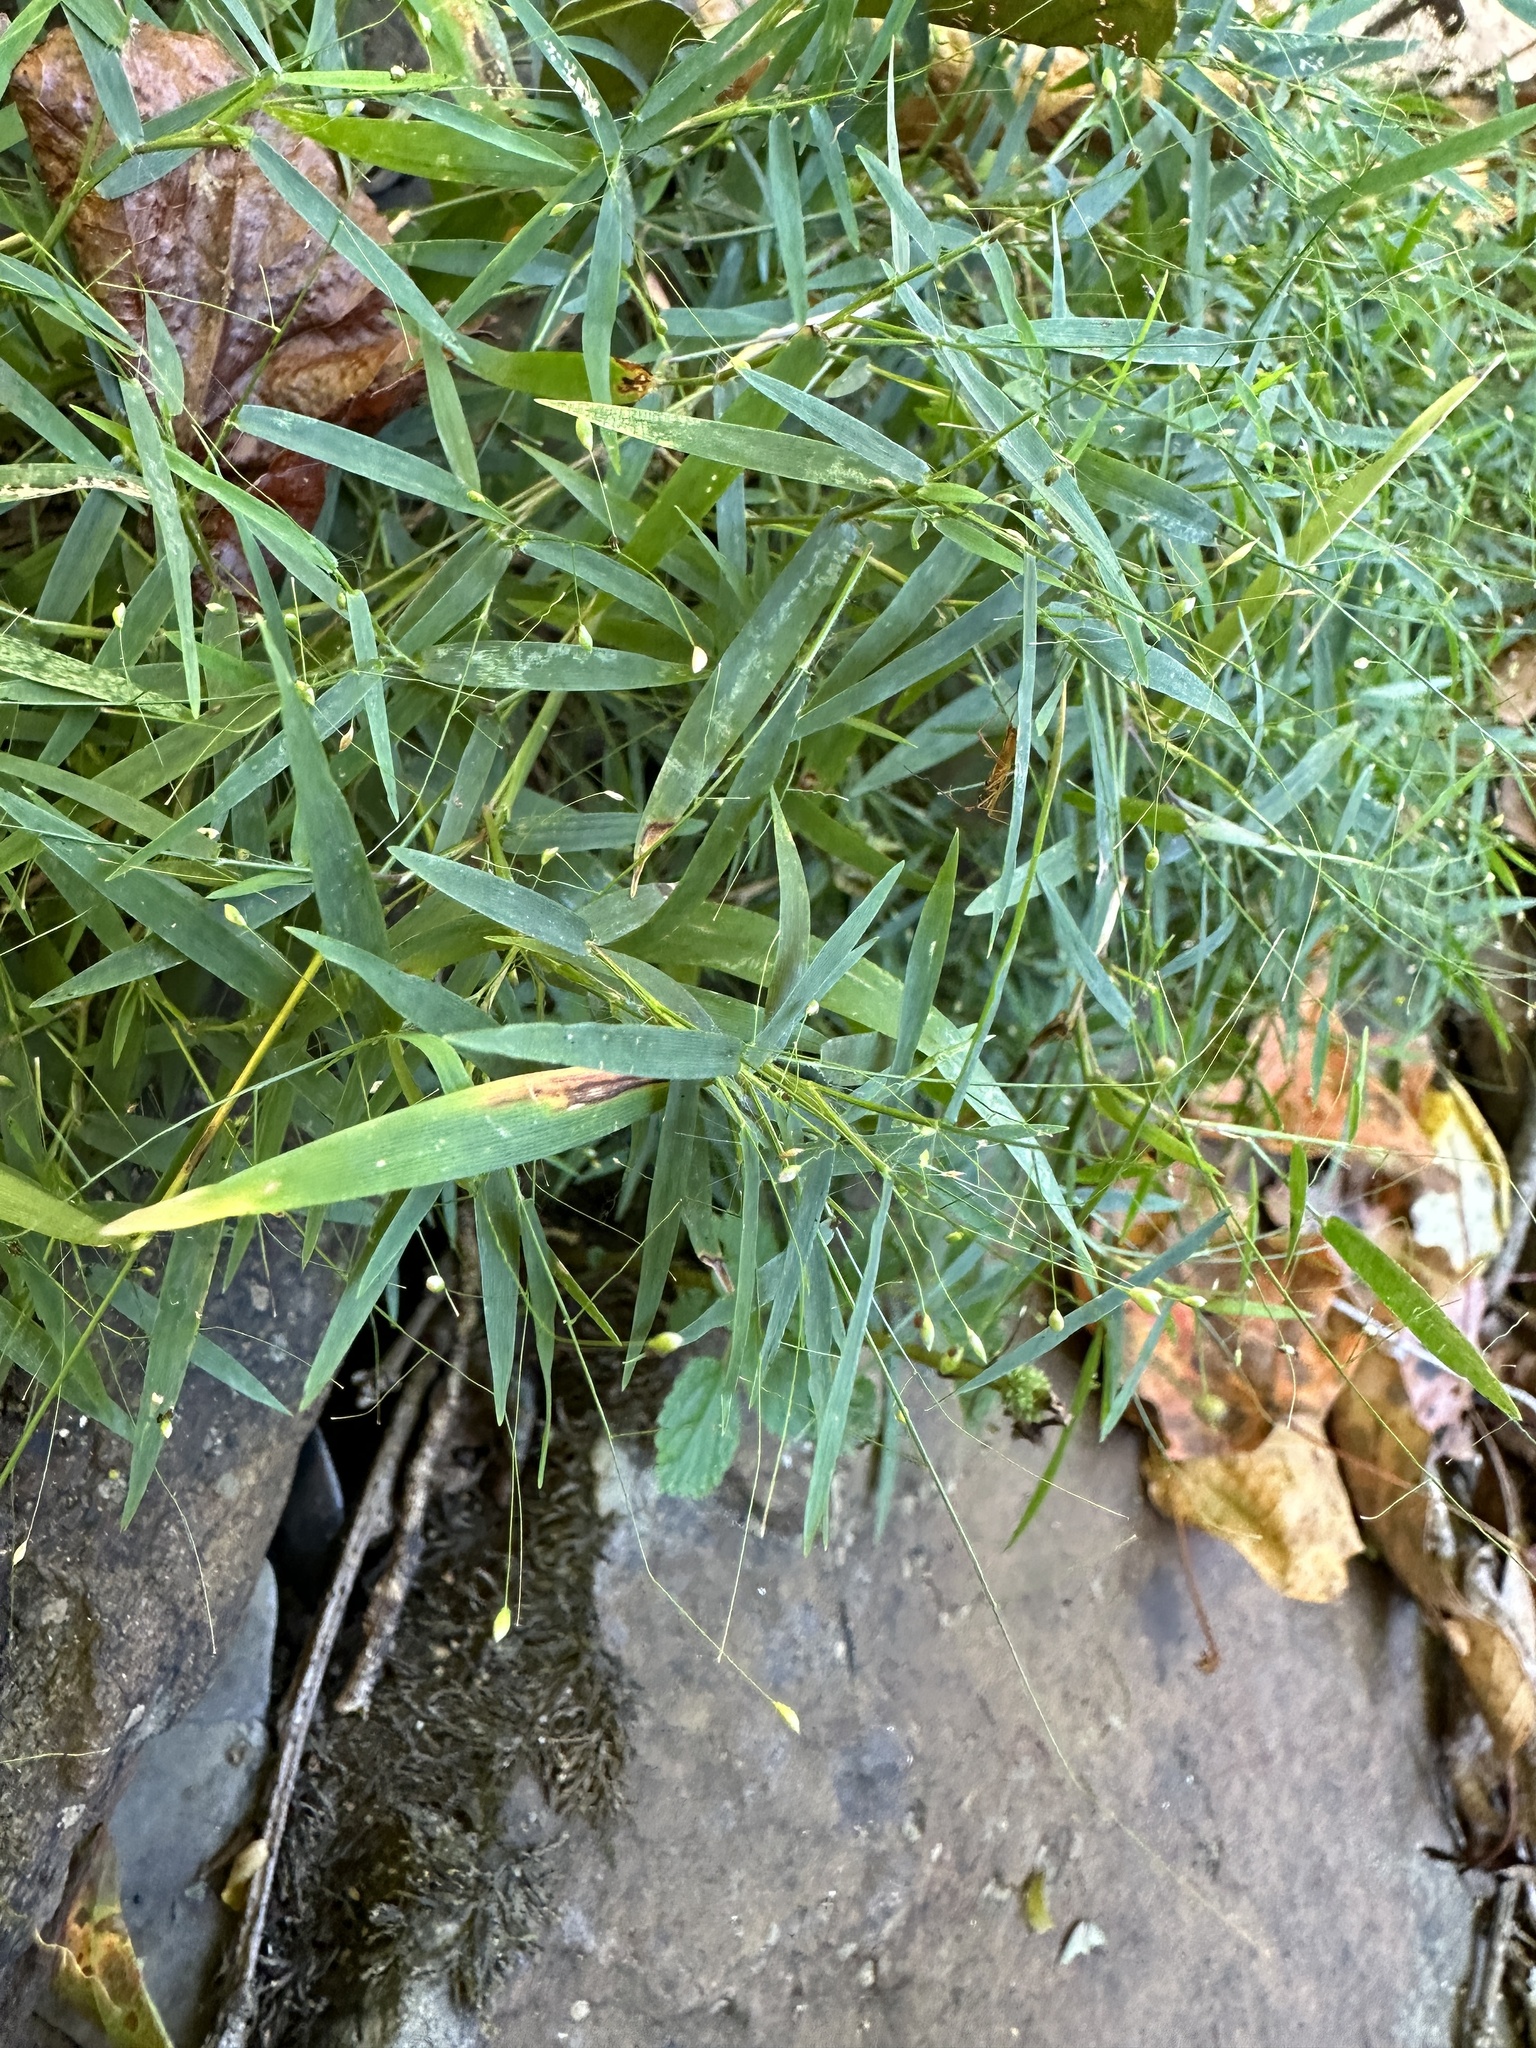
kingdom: Plantae
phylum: Tracheophyta
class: Liliopsida
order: Poales
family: Poaceae
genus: Dichanthelium
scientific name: Dichanthelium microcarpon
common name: Small-fruited witchgrass
